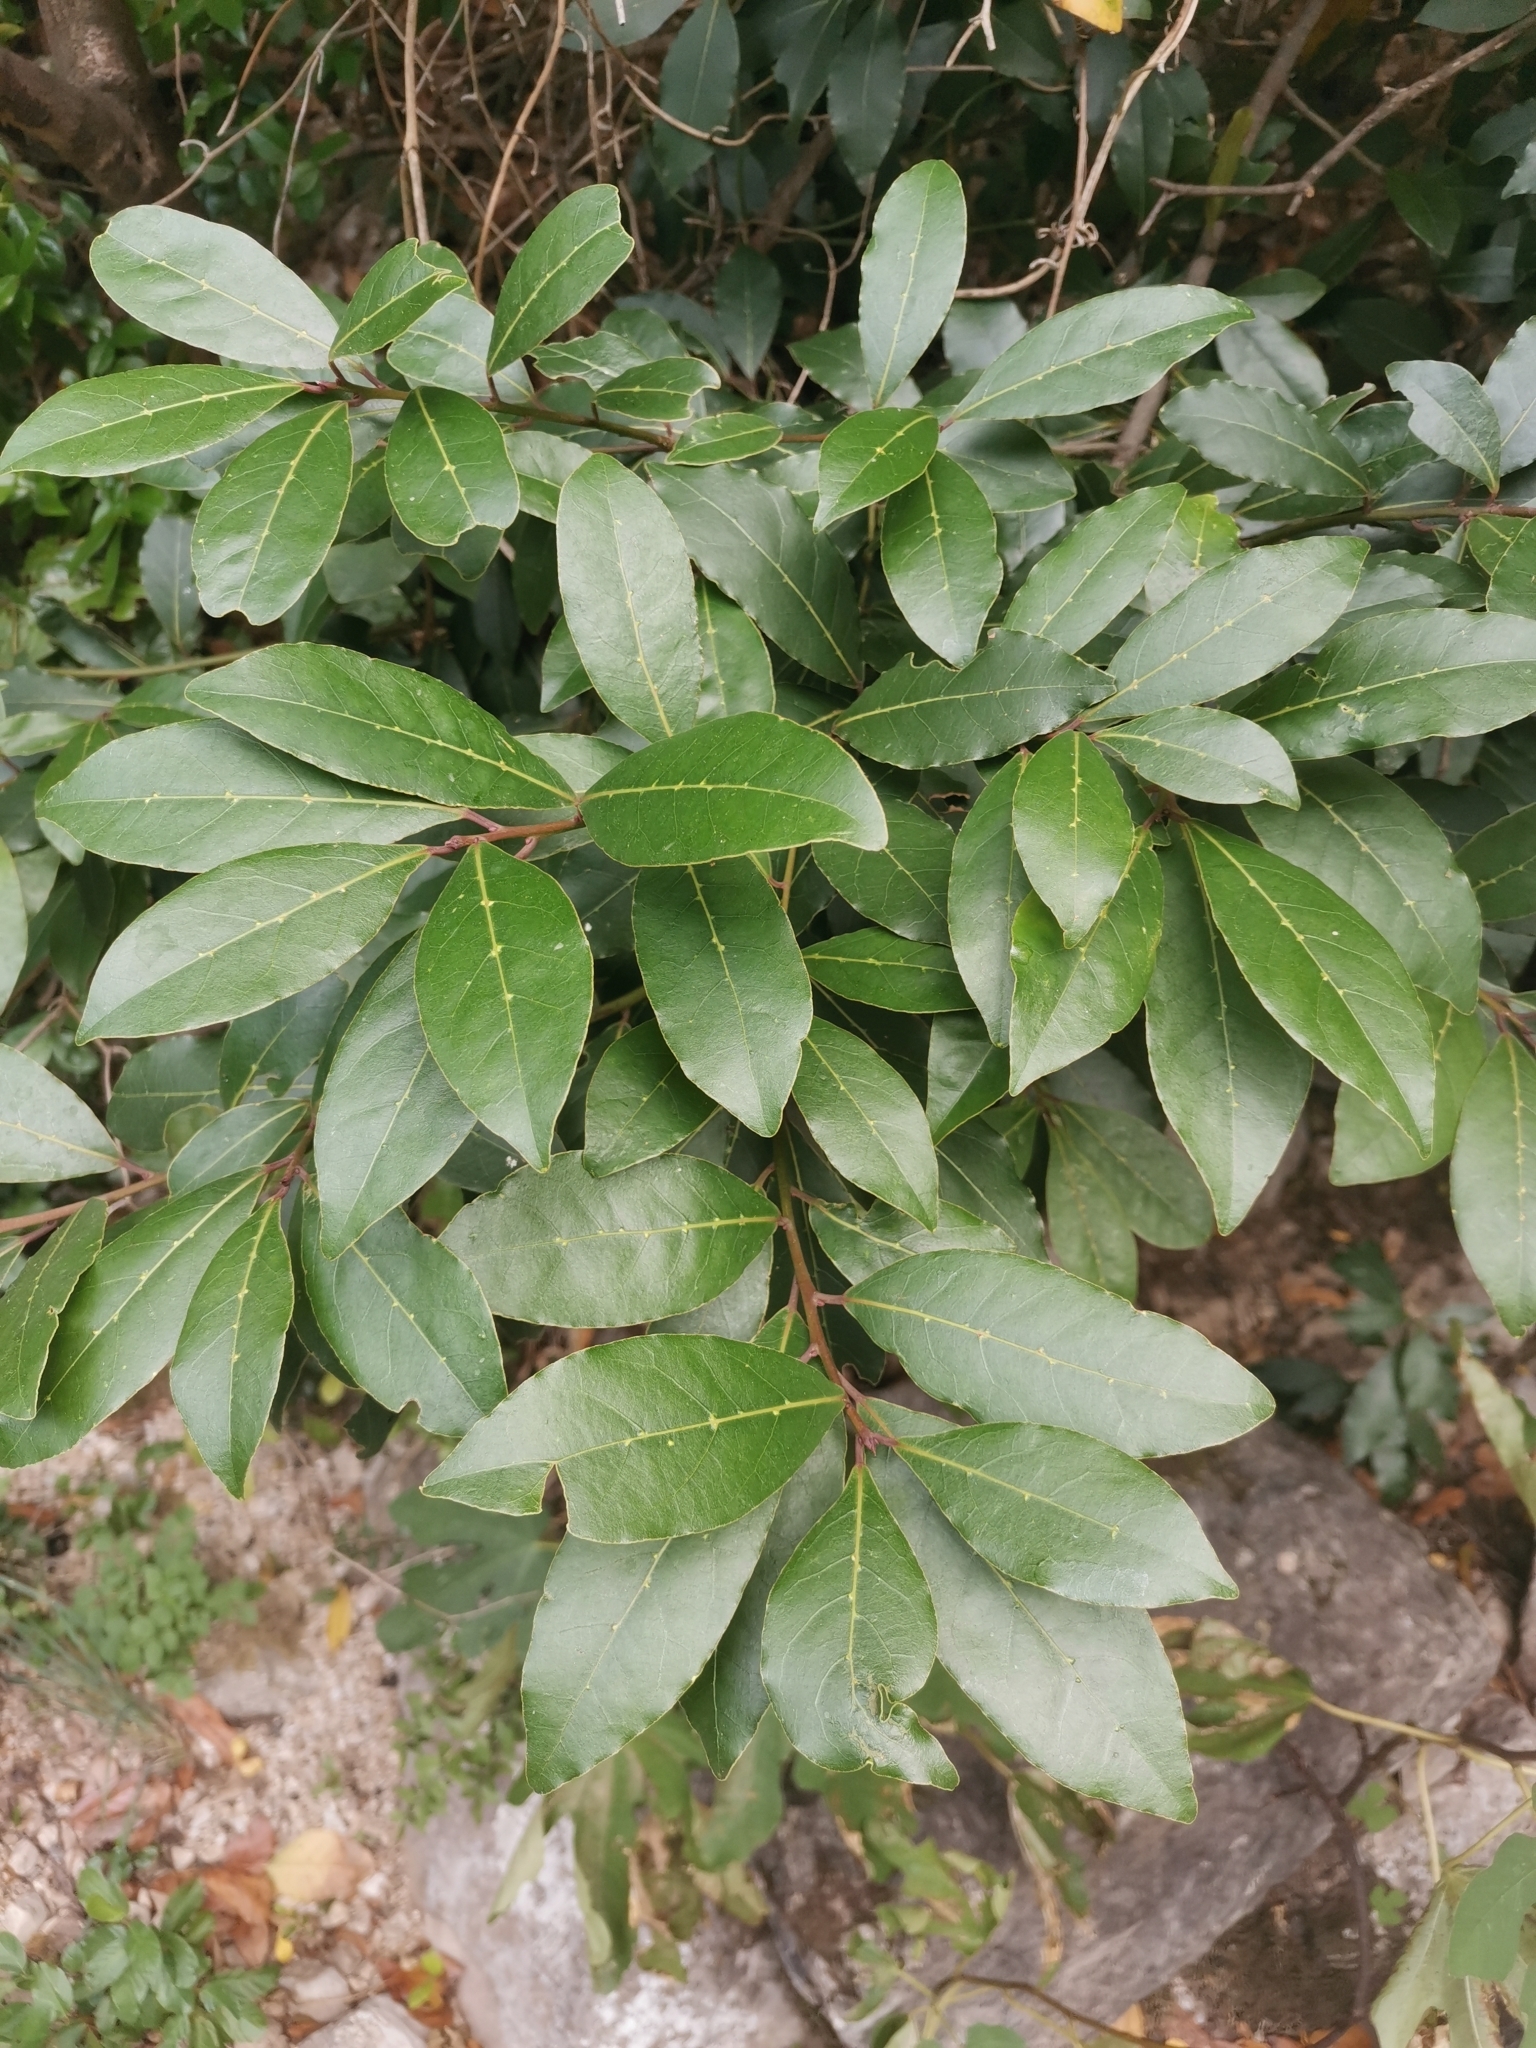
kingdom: Plantae
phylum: Tracheophyta
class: Magnoliopsida
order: Laurales
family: Lauraceae
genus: Laurus
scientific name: Laurus nobilis
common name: Bay
